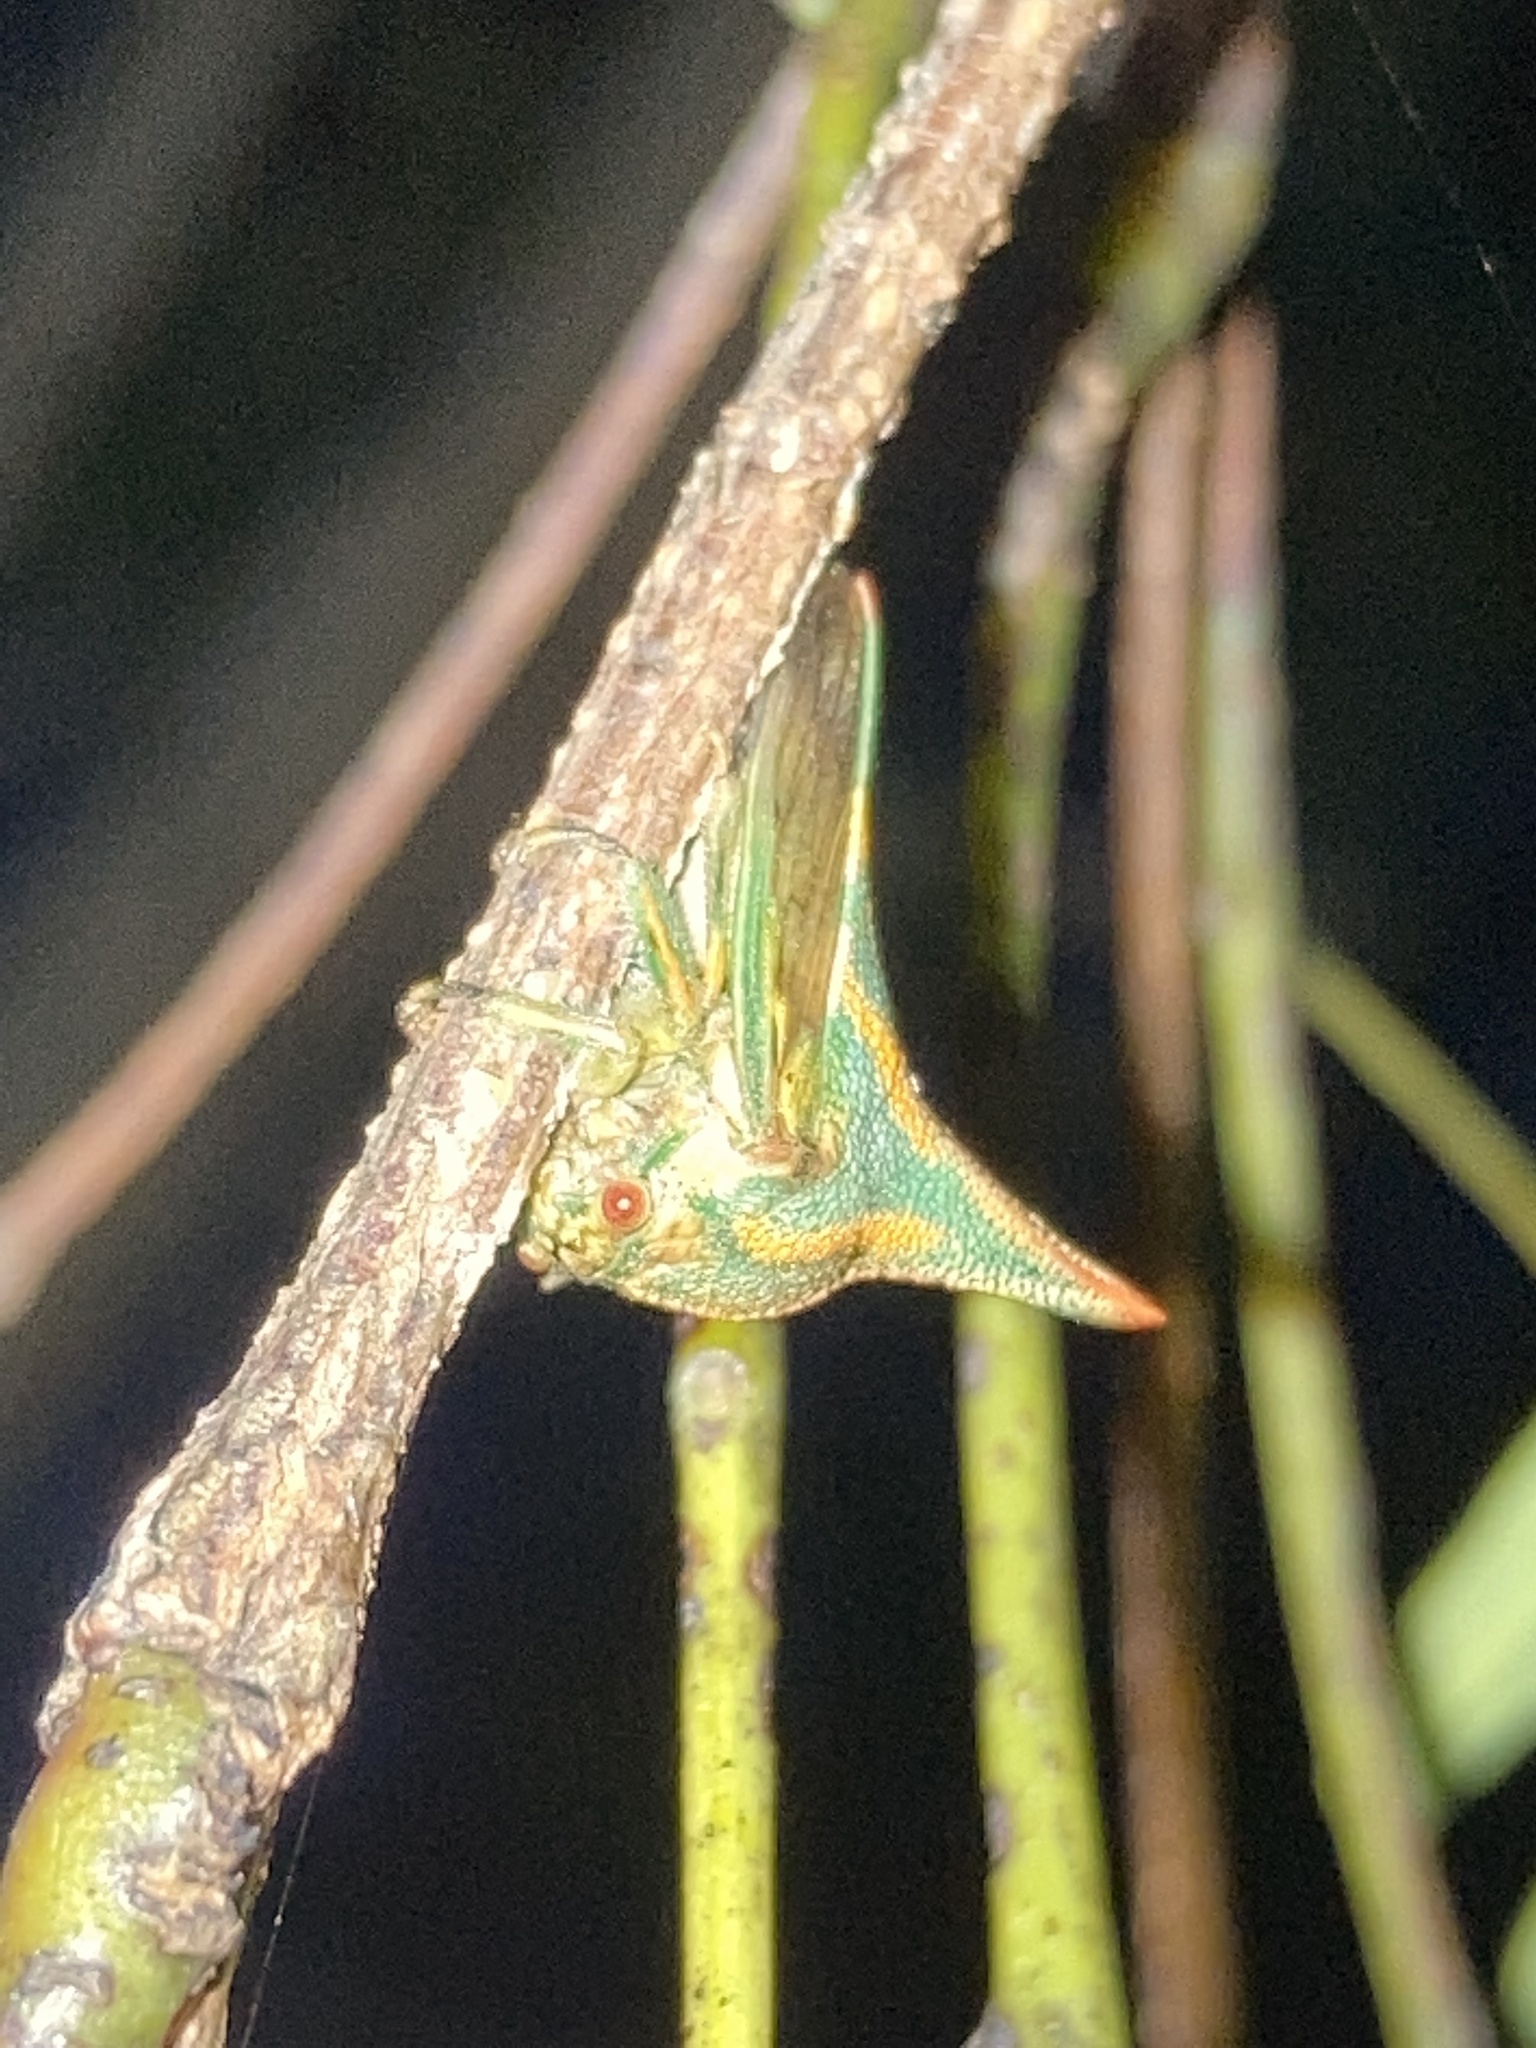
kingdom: Animalia
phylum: Arthropoda
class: Insecta
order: Hemiptera
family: Membracidae
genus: Umbonia
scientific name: Umbonia crassicornis
